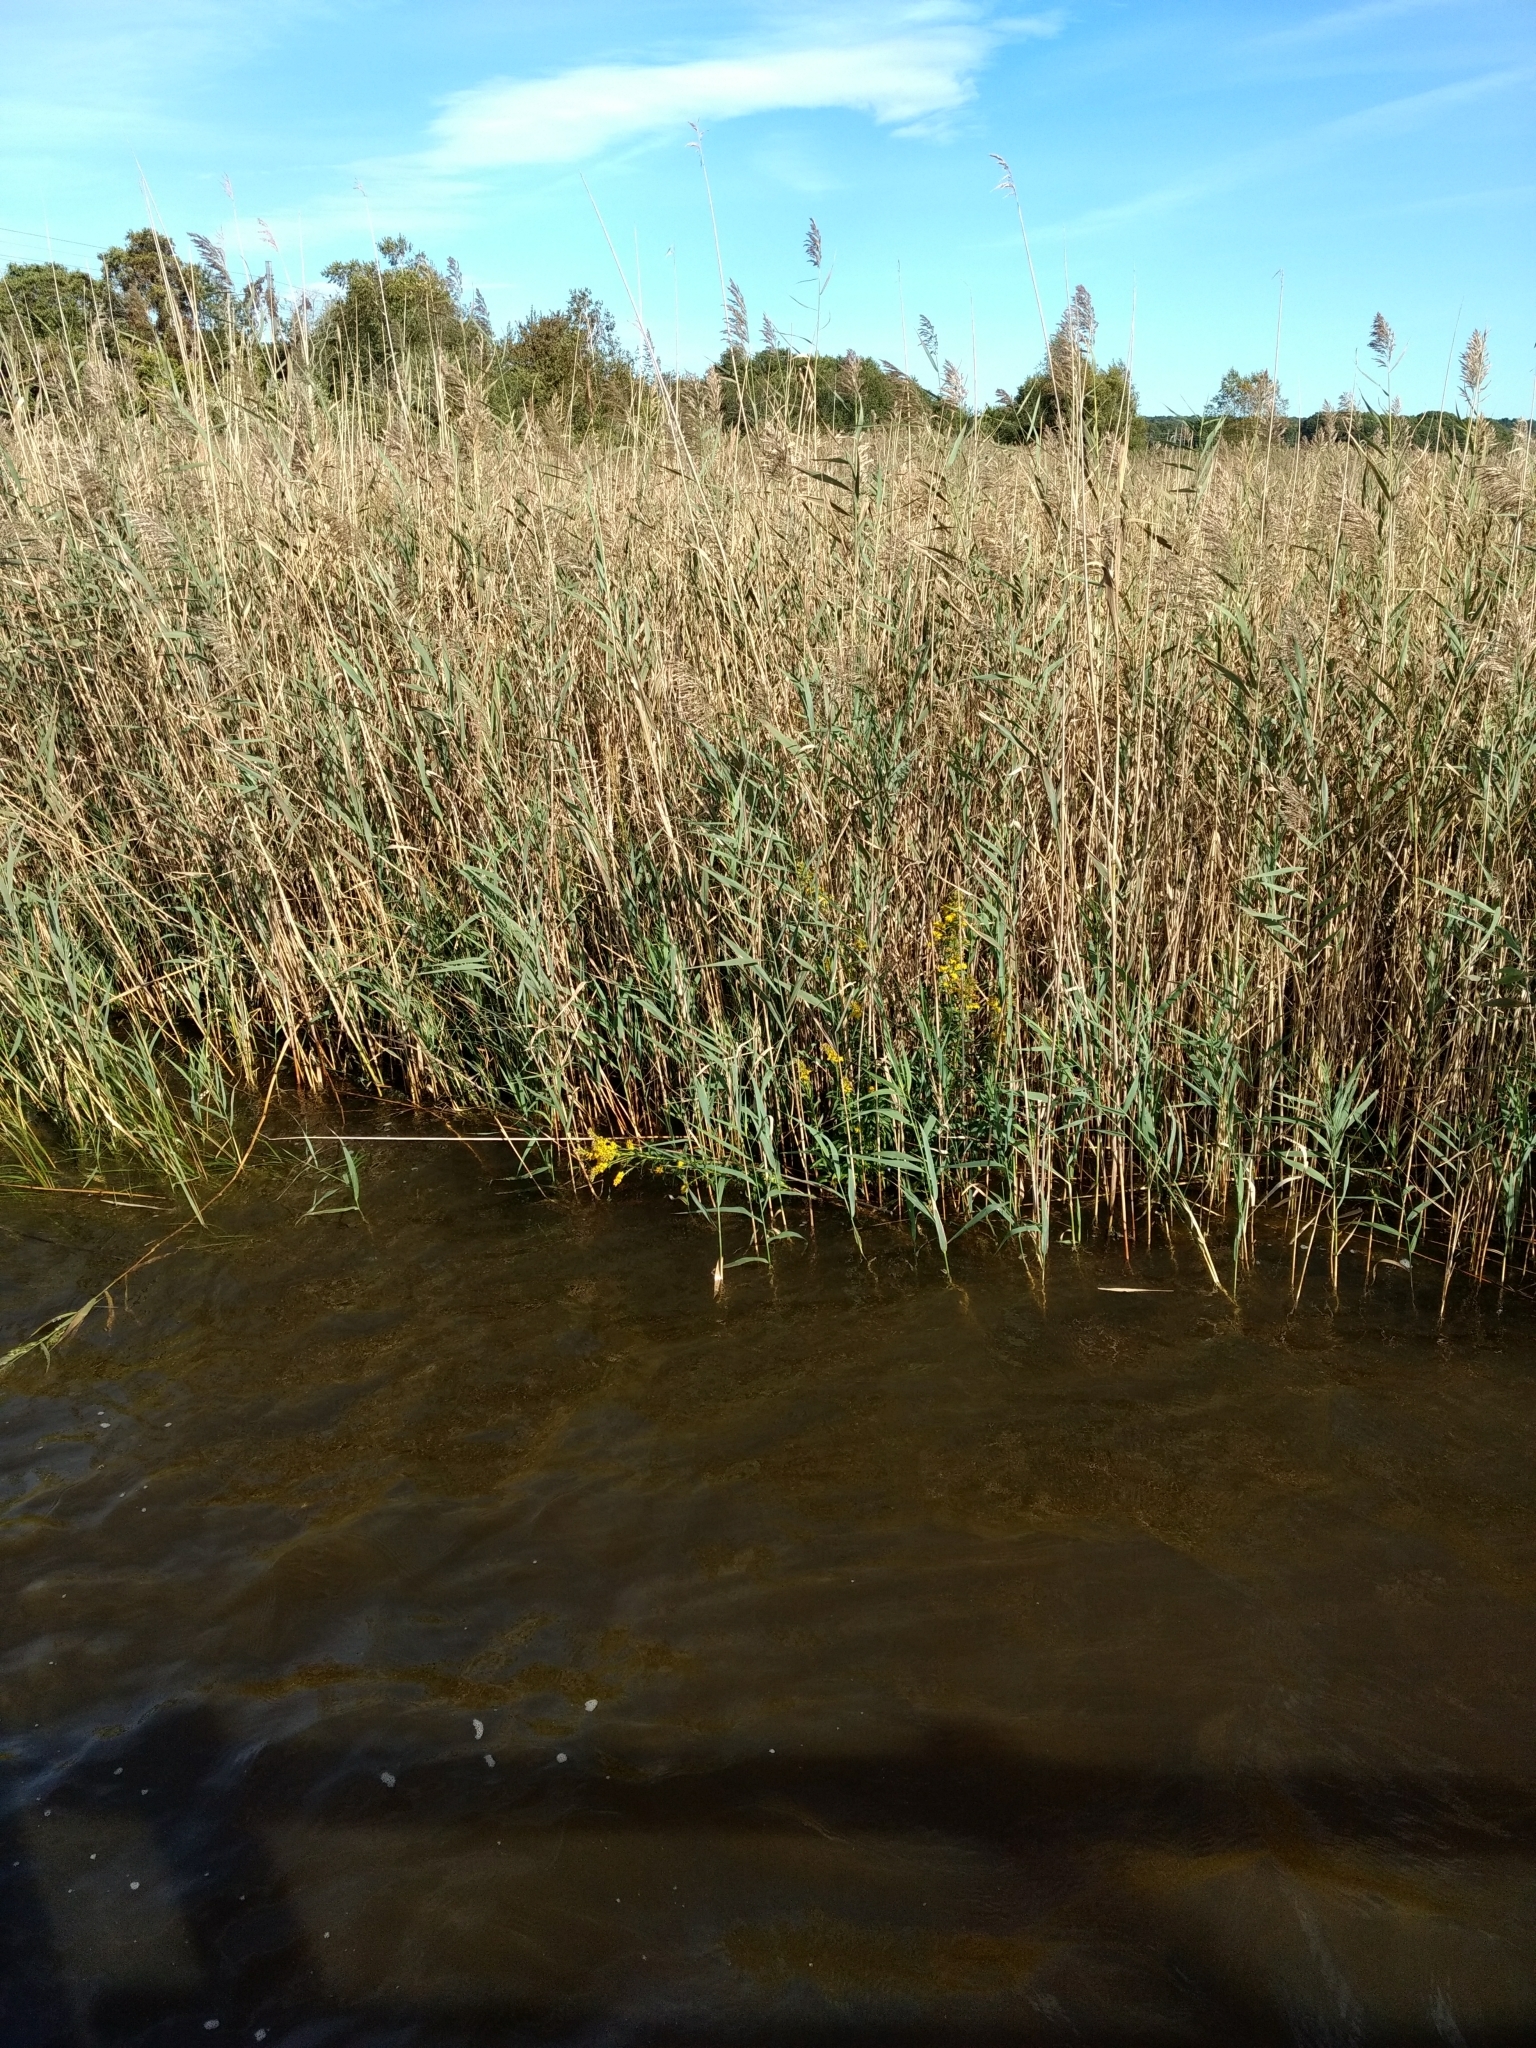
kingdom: Plantae
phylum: Tracheophyta
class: Liliopsida
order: Poales
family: Poaceae
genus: Phragmites
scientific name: Phragmites australis
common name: Common reed
